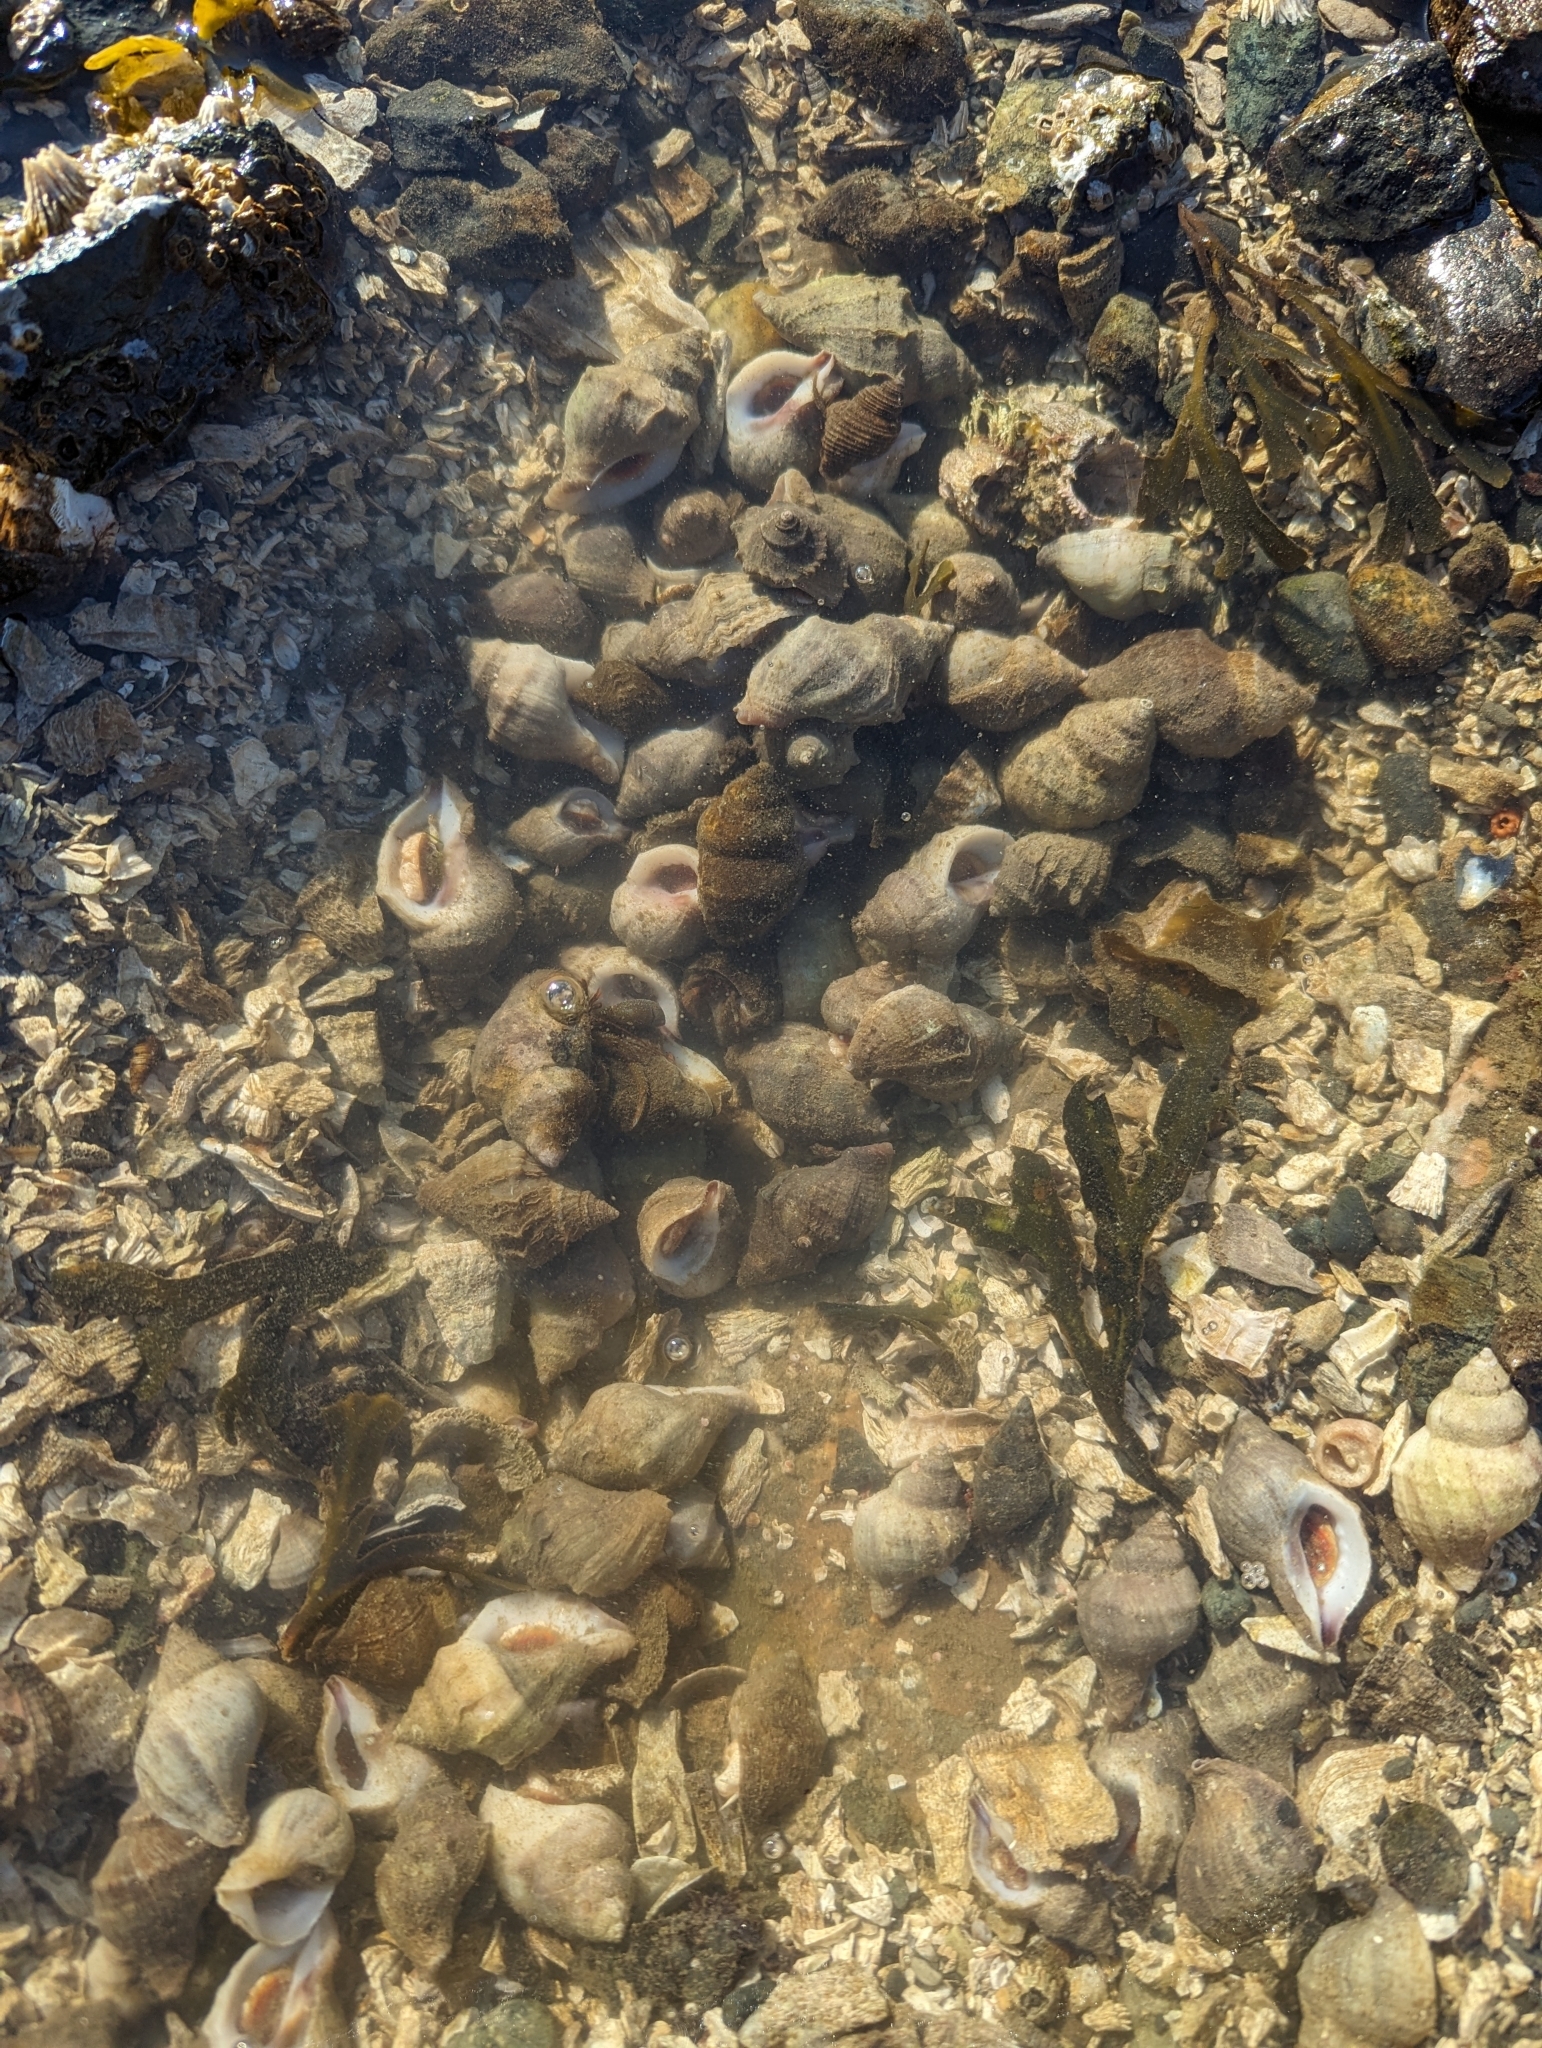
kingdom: Animalia
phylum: Mollusca
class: Gastropoda
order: Neogastropoda
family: Muricidae
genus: Nucella
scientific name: Nucella lamellosa
